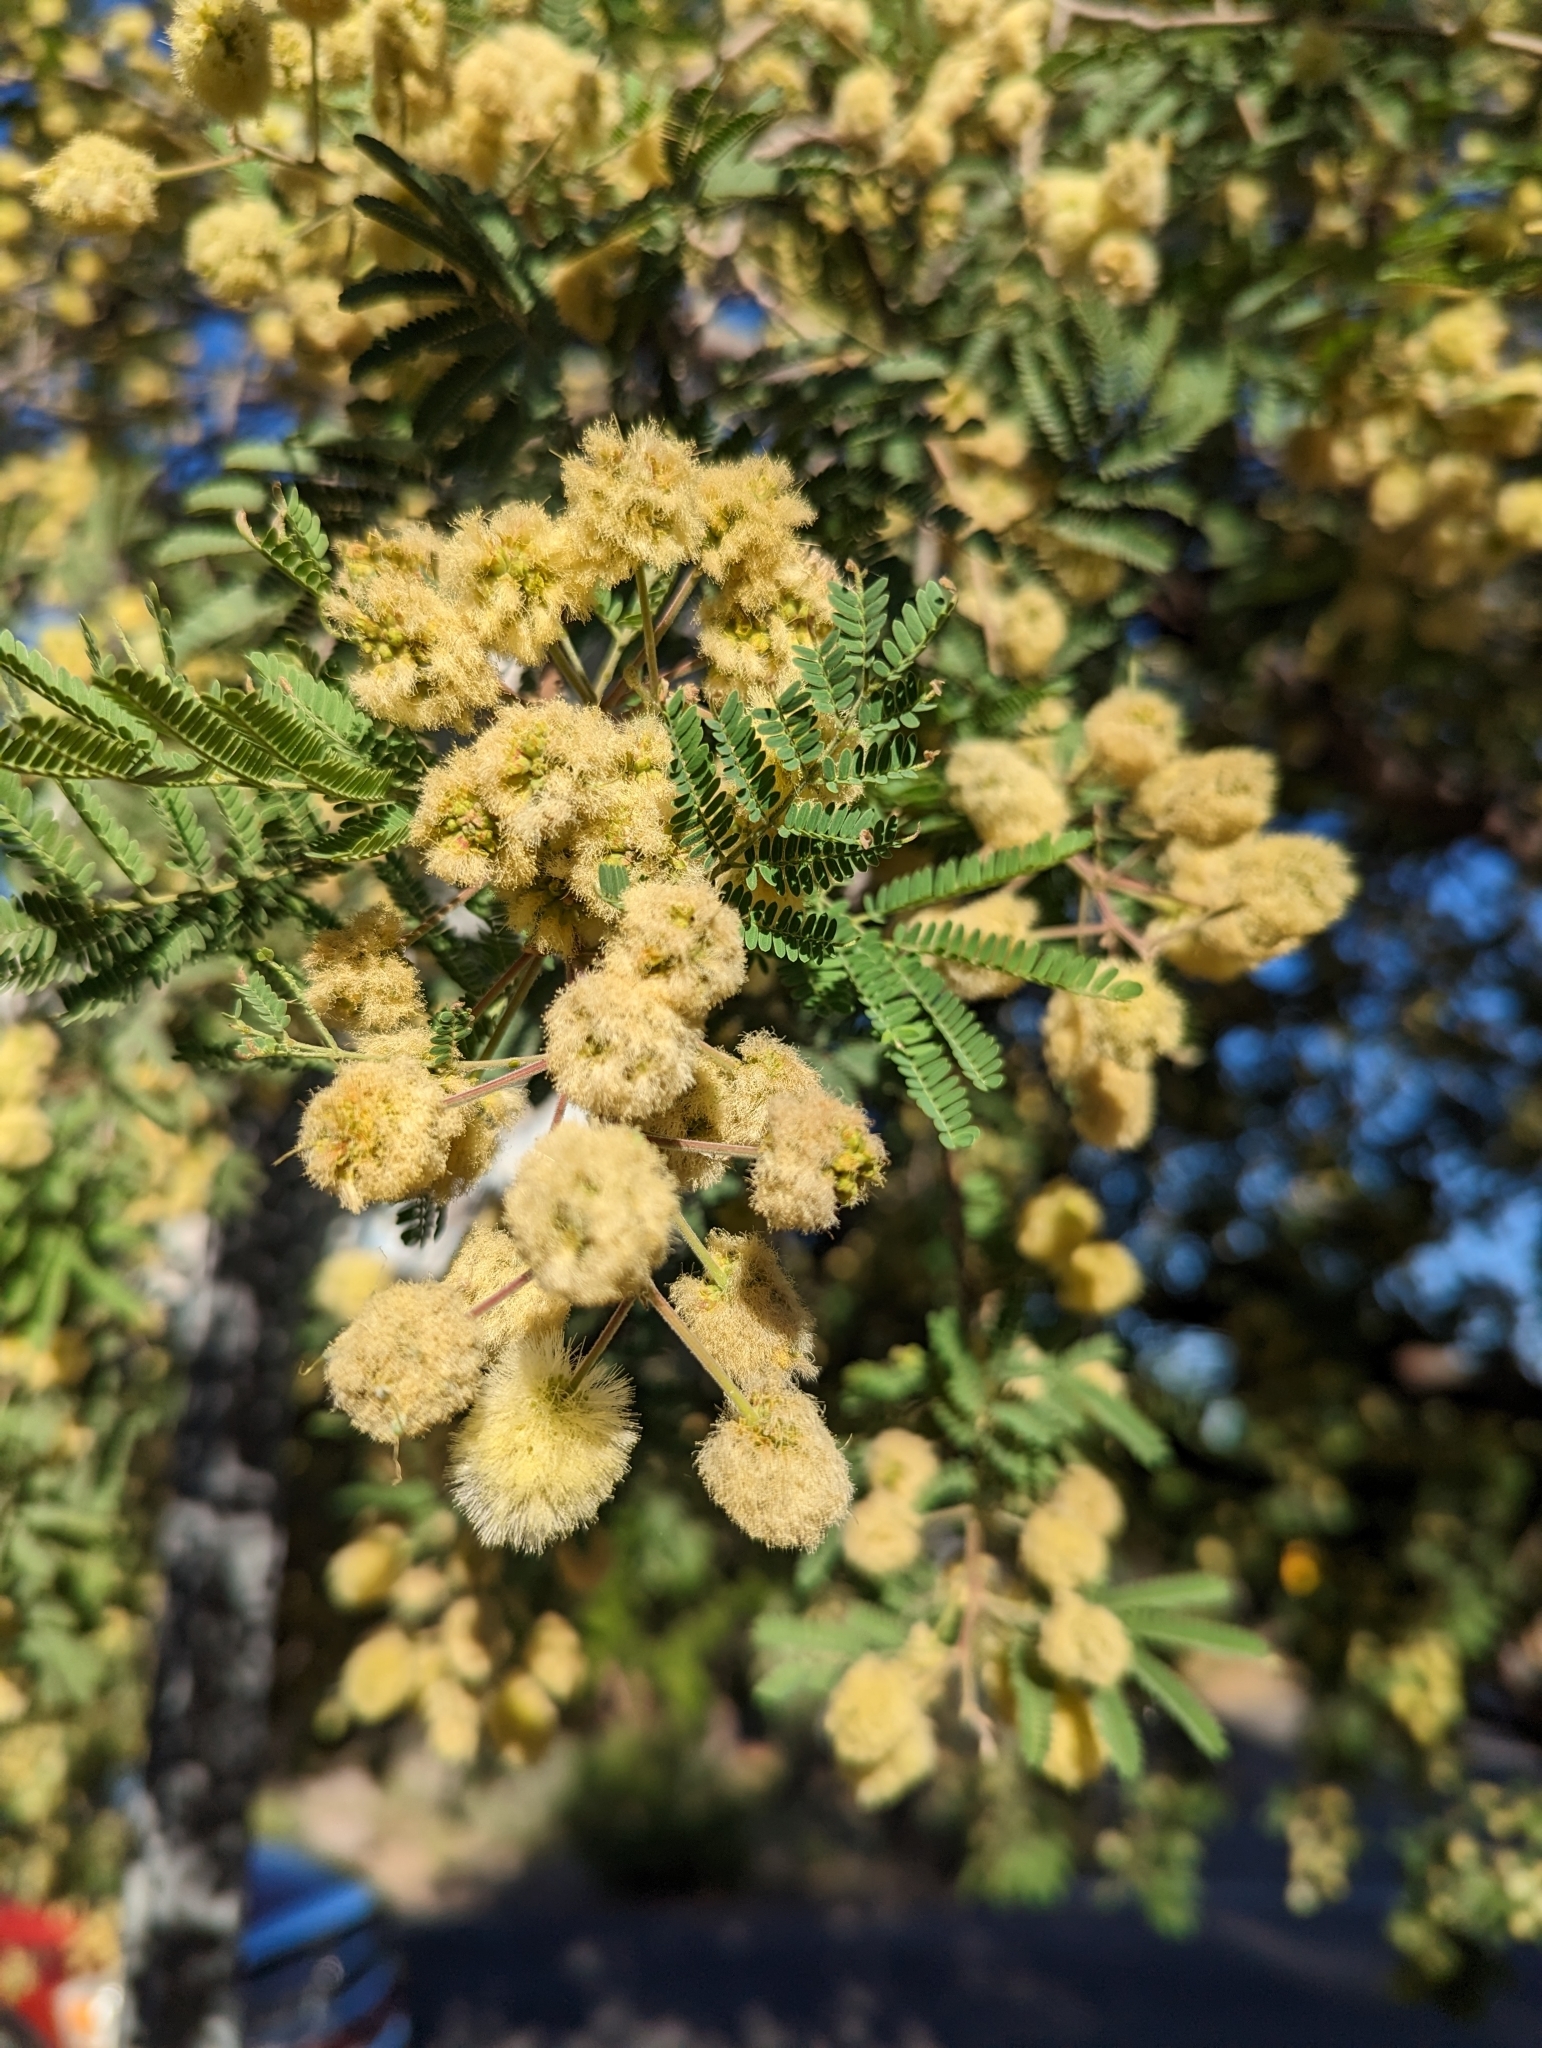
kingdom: Plantae
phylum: Tracheophyta
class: Magnoliopsida
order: Fabales
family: Fabaceae
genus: Senegalia
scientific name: Senegalia greggii
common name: Texas-mimosa
